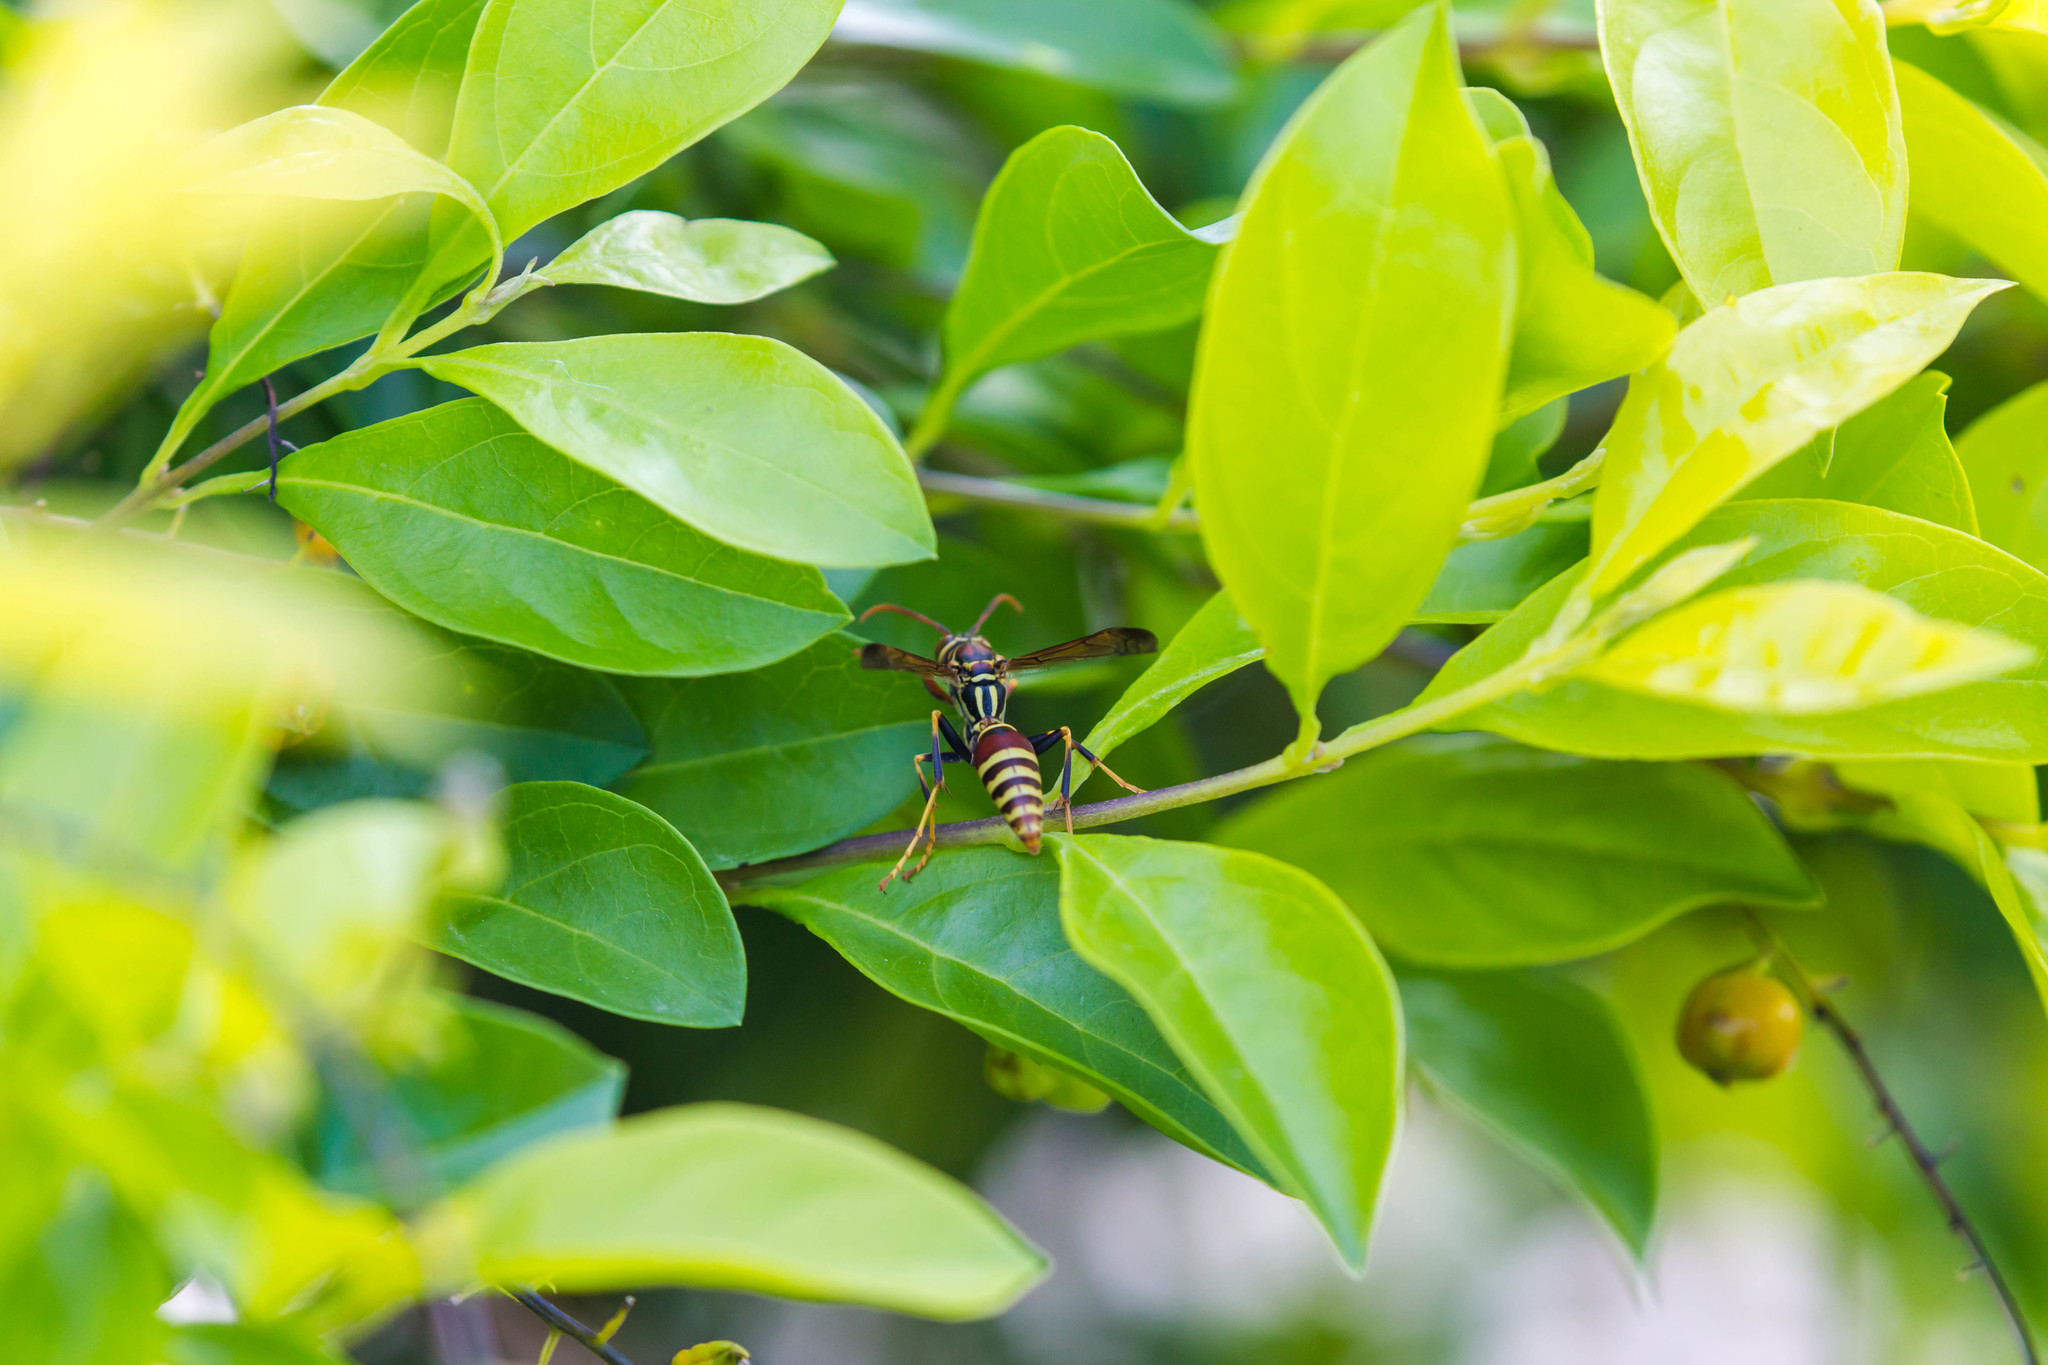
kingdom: Animalia
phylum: Arthropoda
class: Insecta
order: Hymenoptera
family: Eumenidae
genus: Polistes
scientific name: Polistes exclamans
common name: Paper wasp
